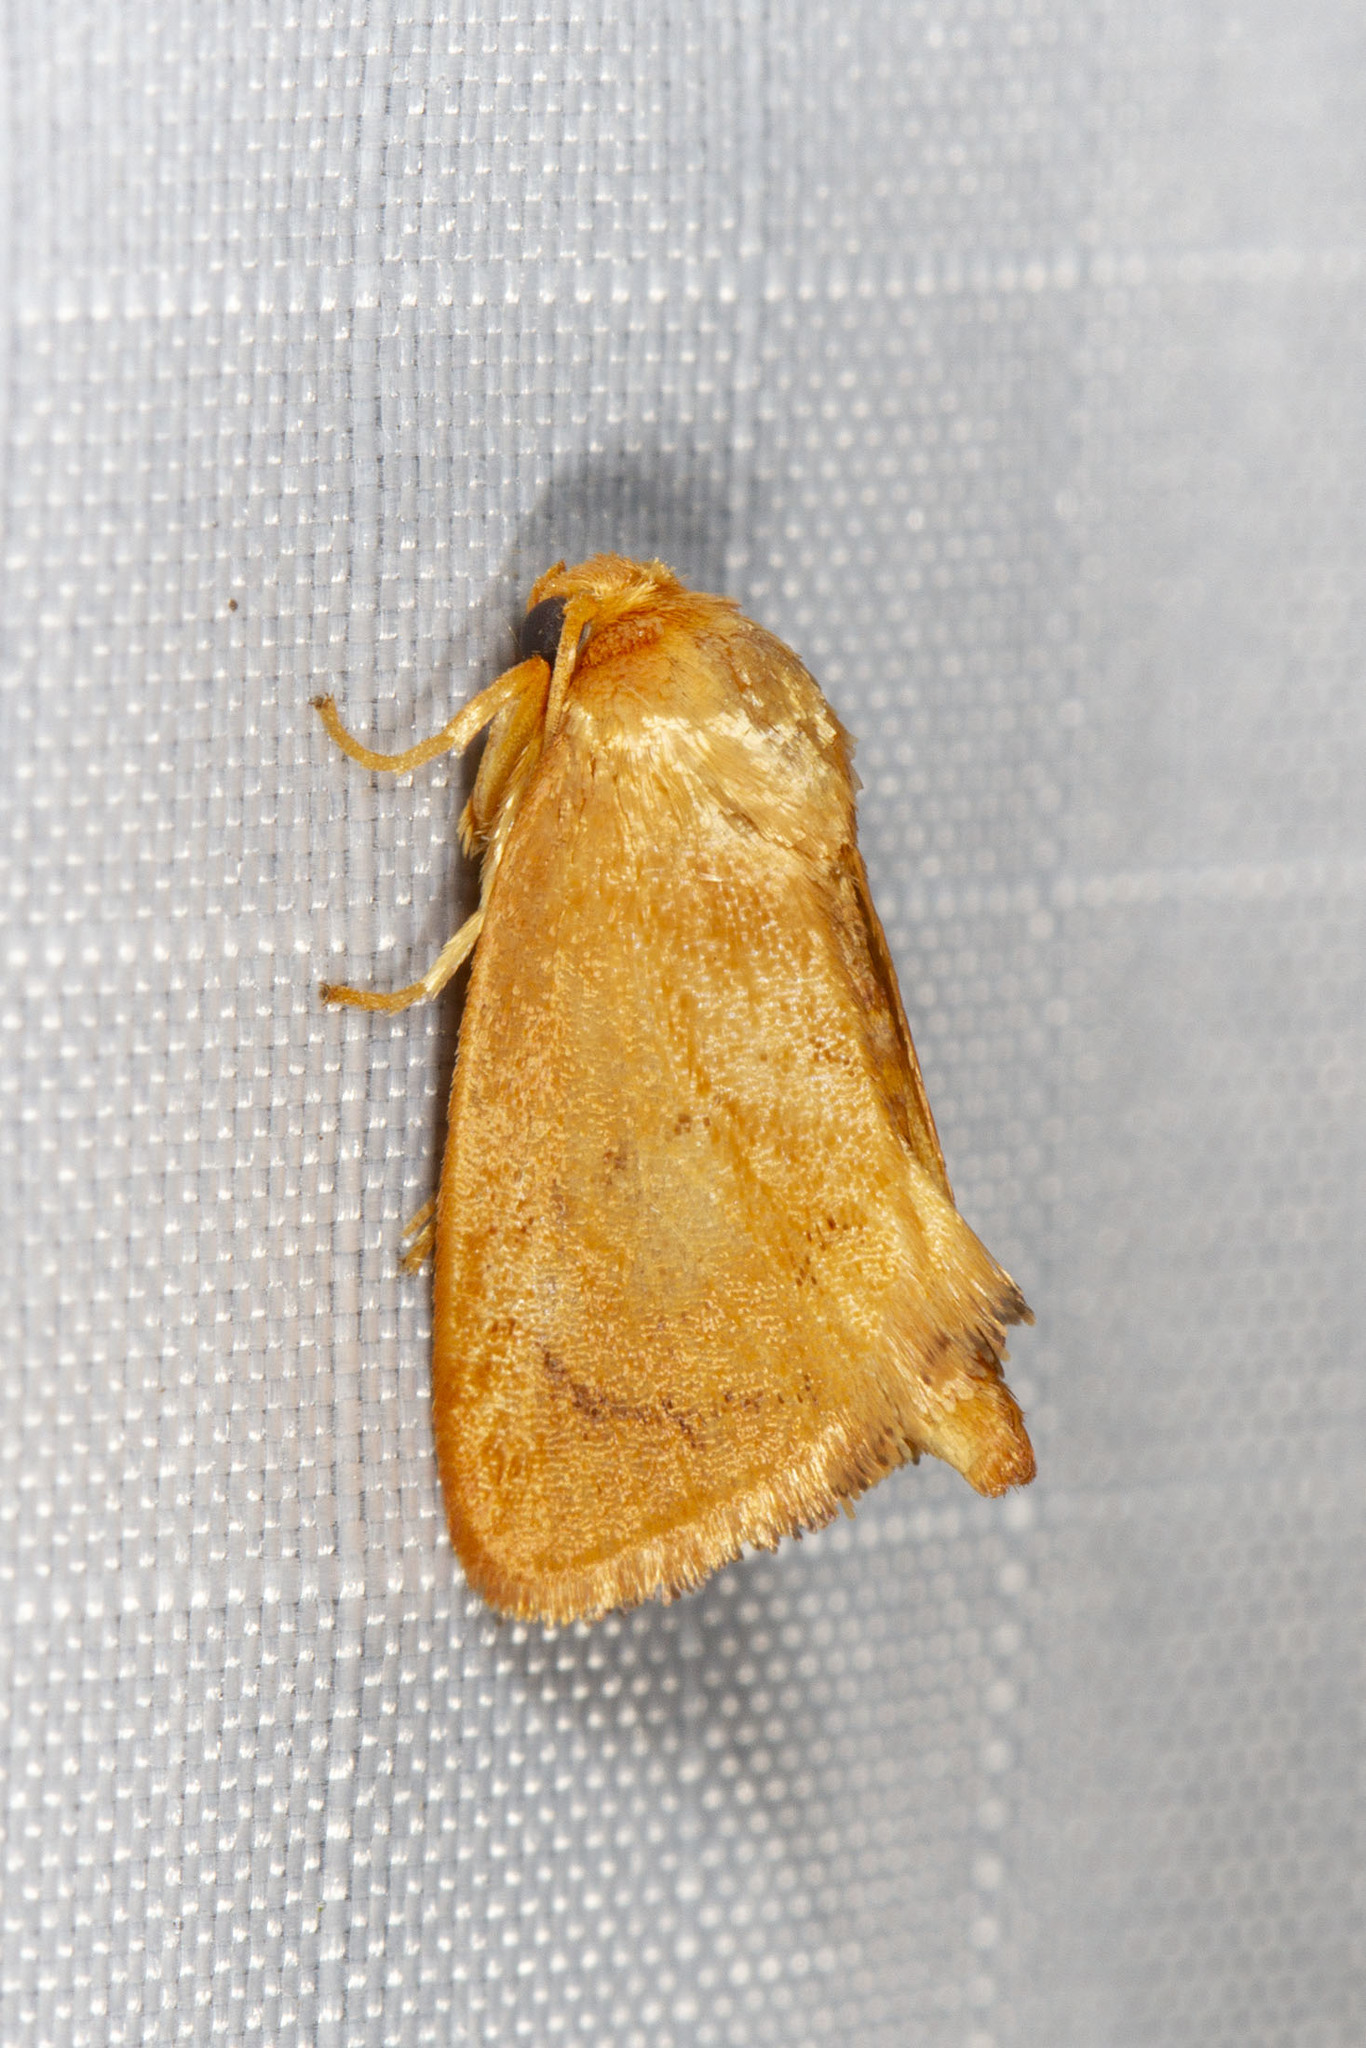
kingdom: Animalia
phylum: Arthropoda
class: Insecta
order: Lepidoptera
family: Limacodidae
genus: Tortricidia
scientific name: Tortricidia flexuosa
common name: Abbreviated button slug moth
